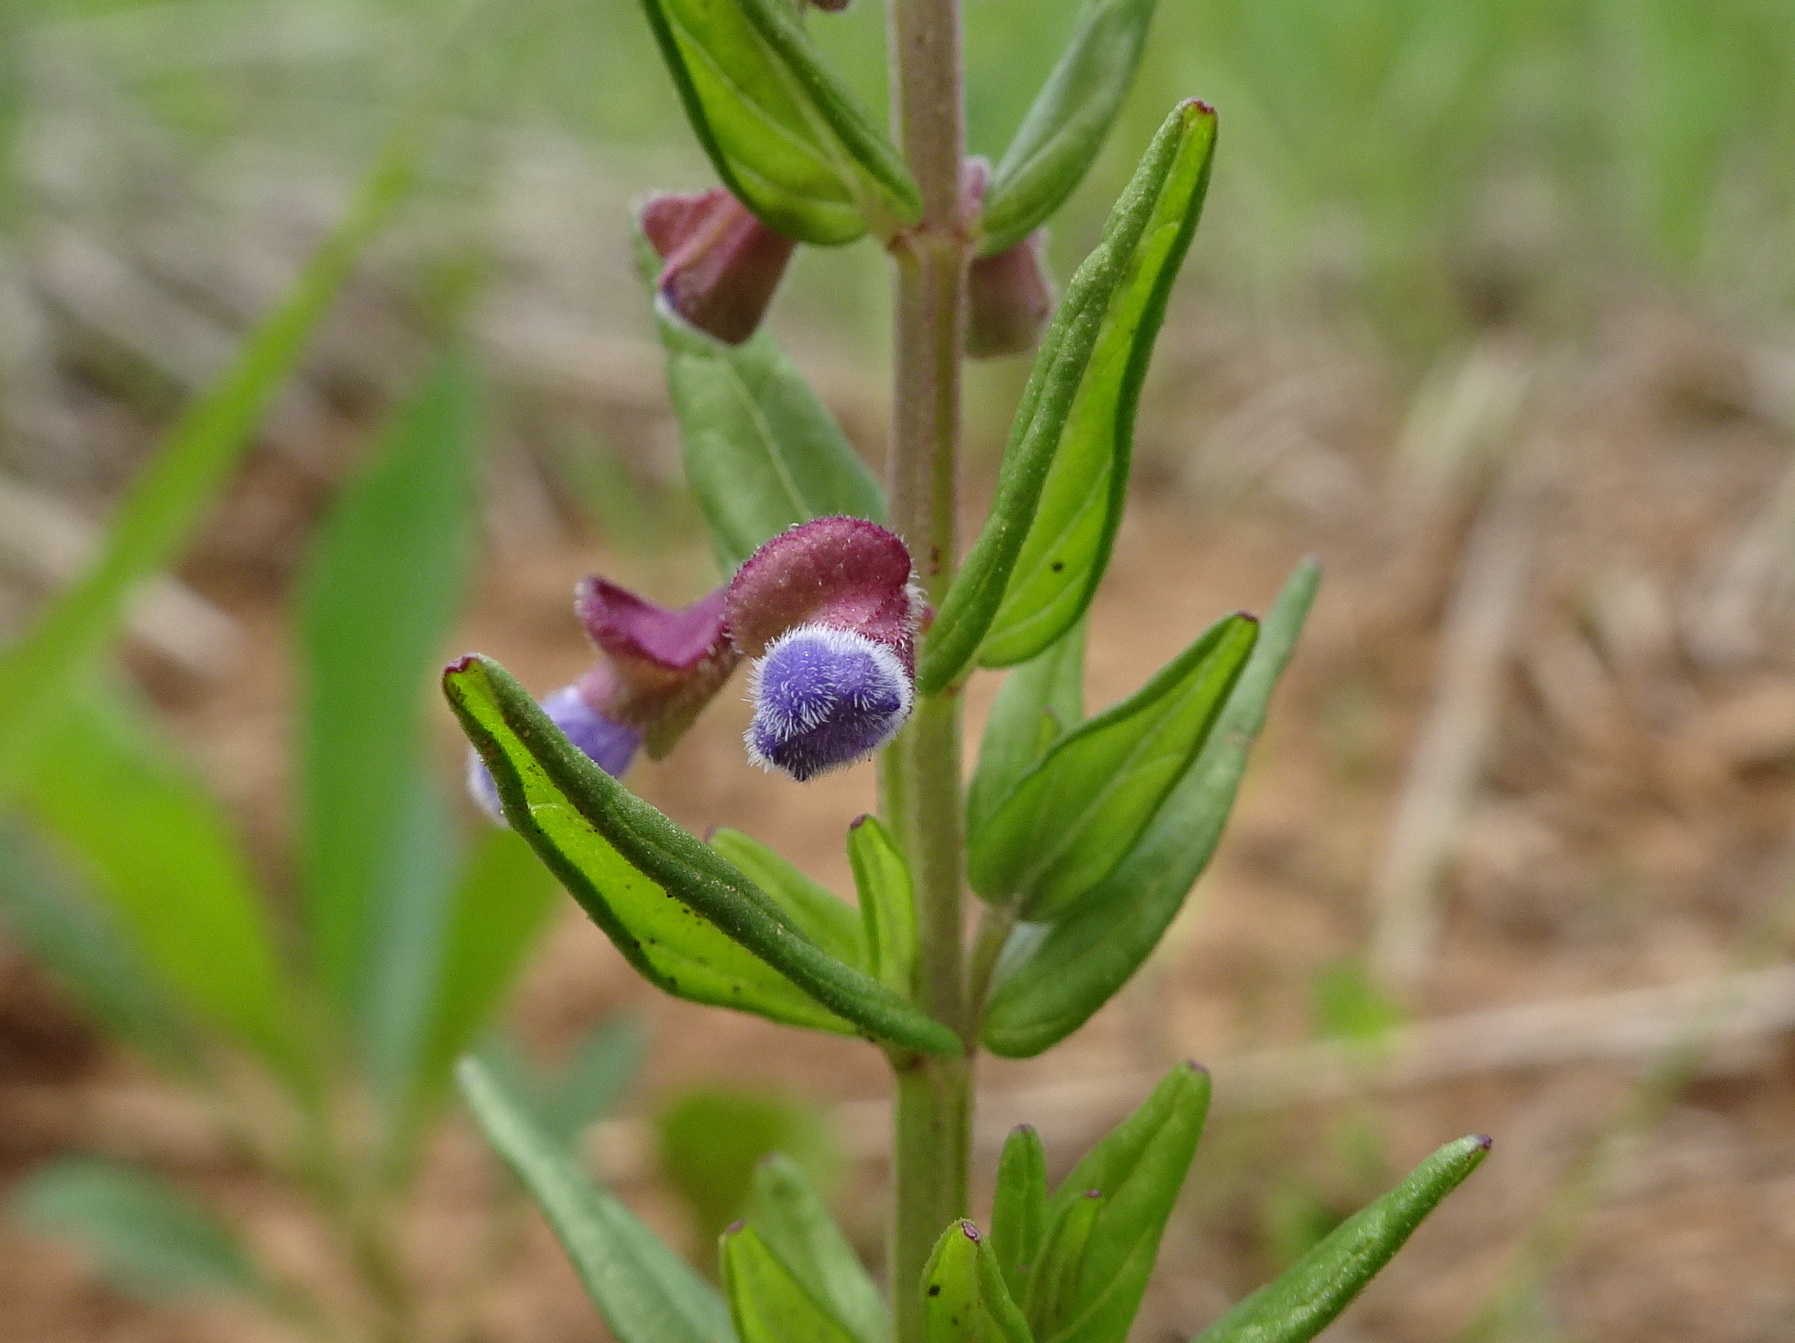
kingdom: Plantae
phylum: Tracheophyta
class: Magnoliopsida
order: Lamiales
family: Lamiaceae
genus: Scutellaria
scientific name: Scutellaria parvula
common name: Little scullcap
